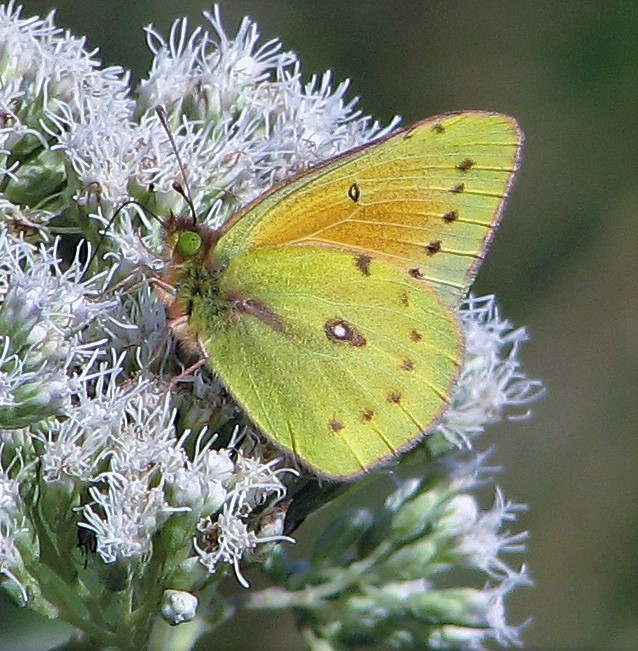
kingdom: Animalia
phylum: Arthropoda
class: Insecta
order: Lepidoptera
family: Pieridae
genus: Colias
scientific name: Colias lesbia
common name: Lesbia clouded yellow
